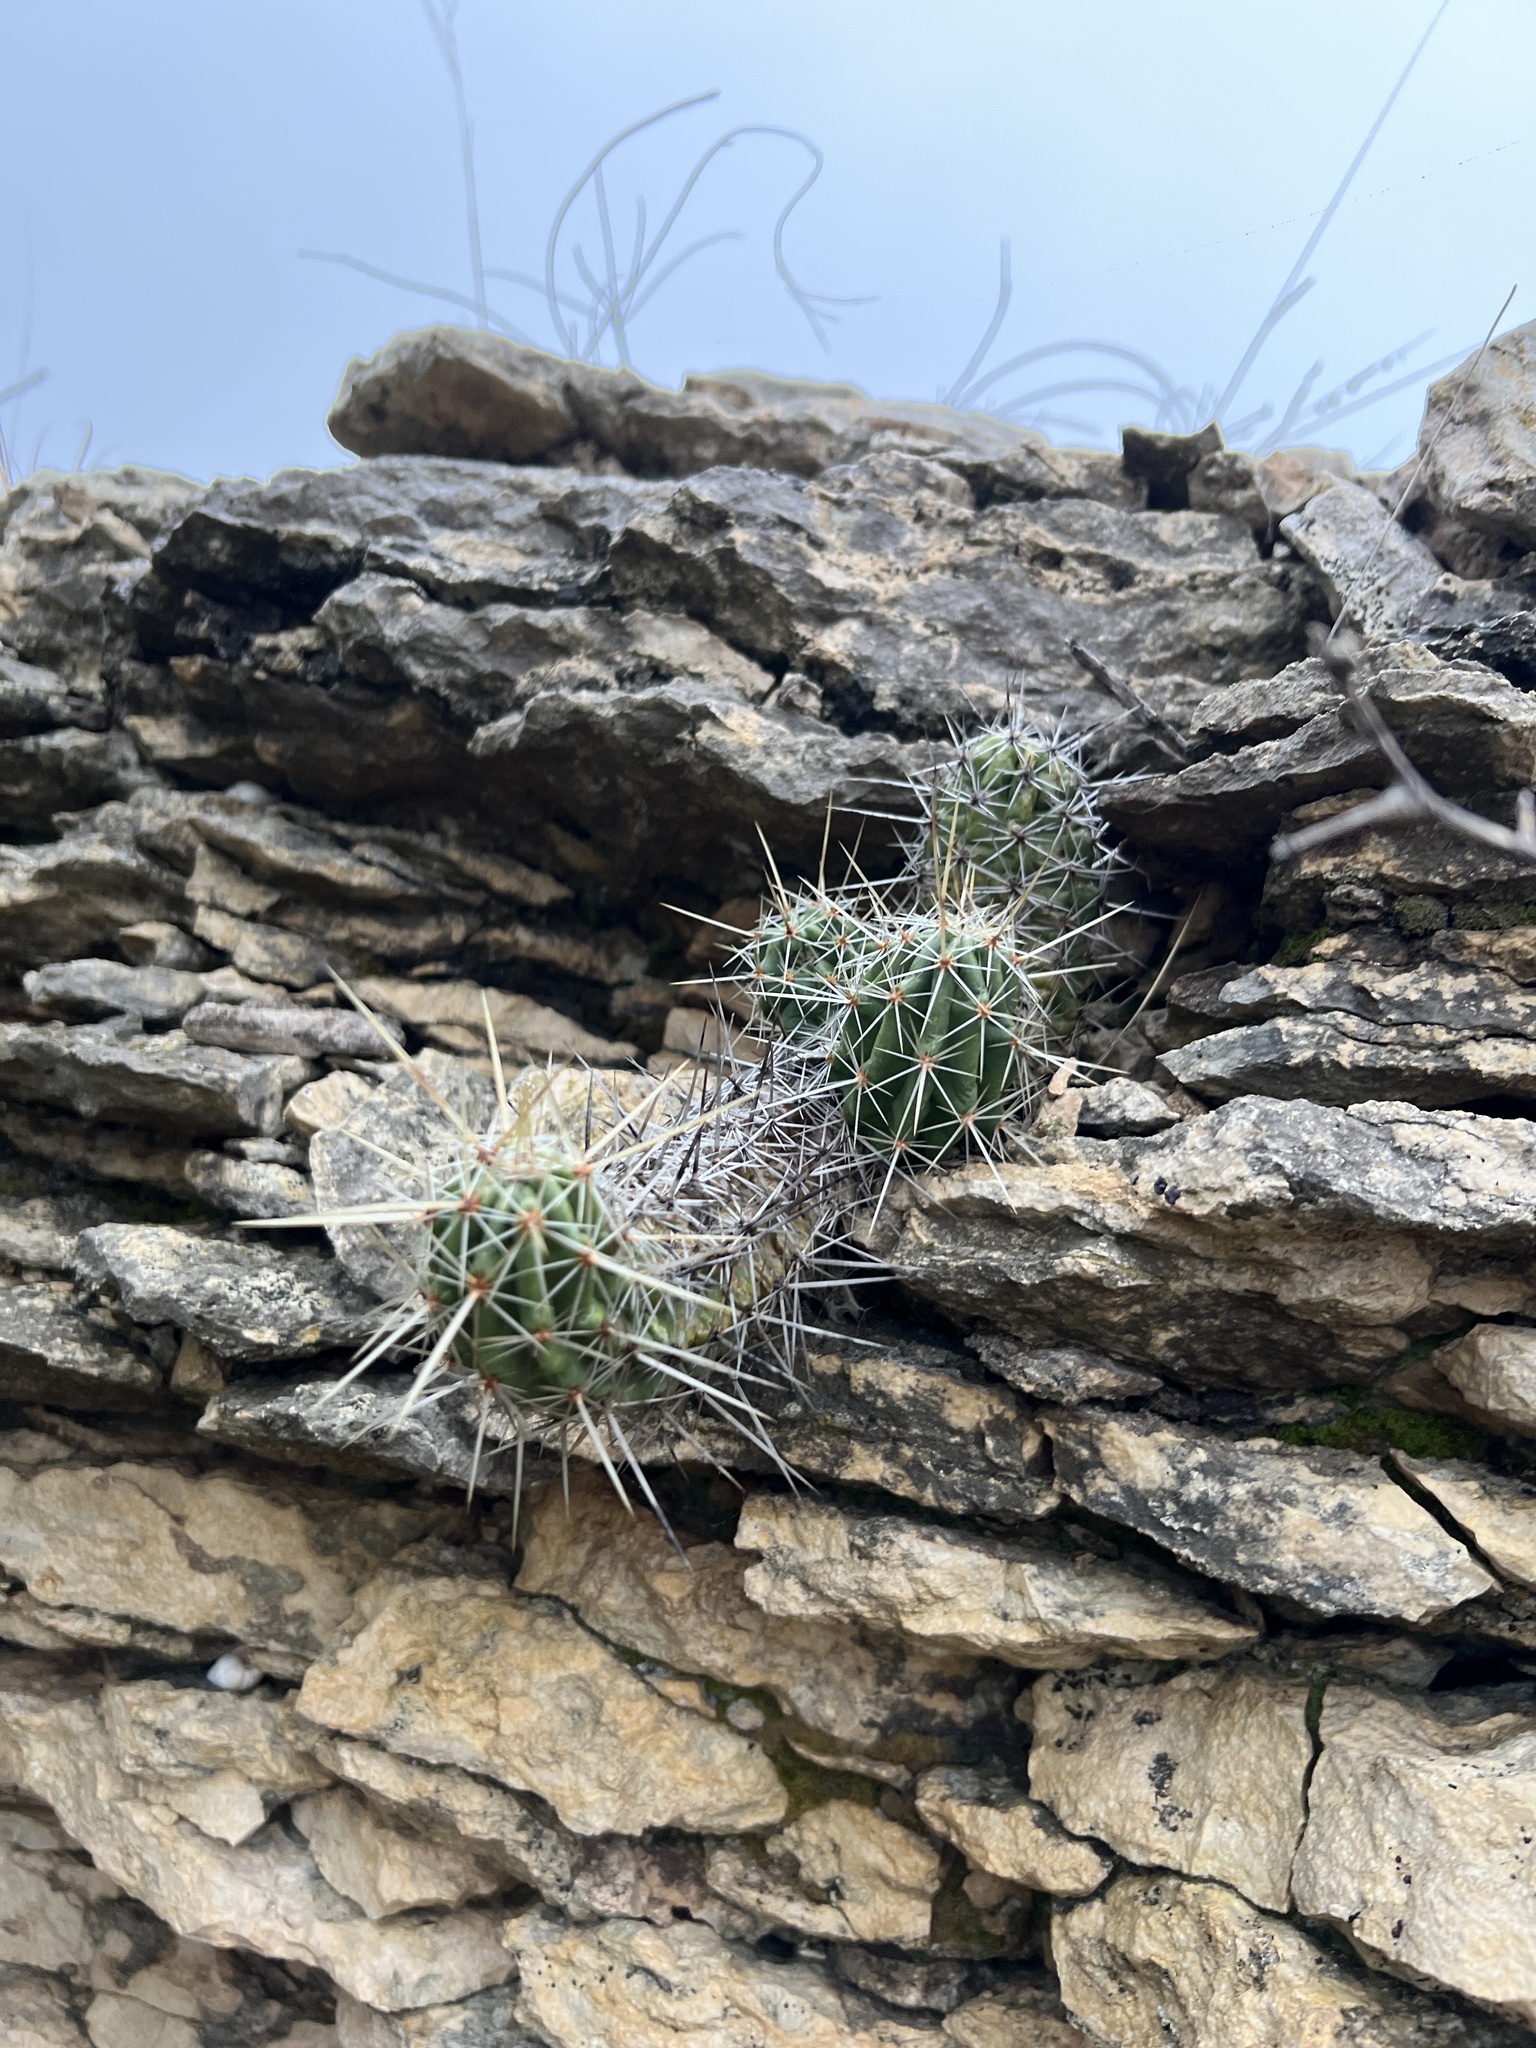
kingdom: Plantae
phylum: Tracheophyta
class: Magnoliopsida
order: Caryophyllales
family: Cactaceae
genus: Echinocereus
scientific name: Echinocereus enneacanthus
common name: Pitaya
